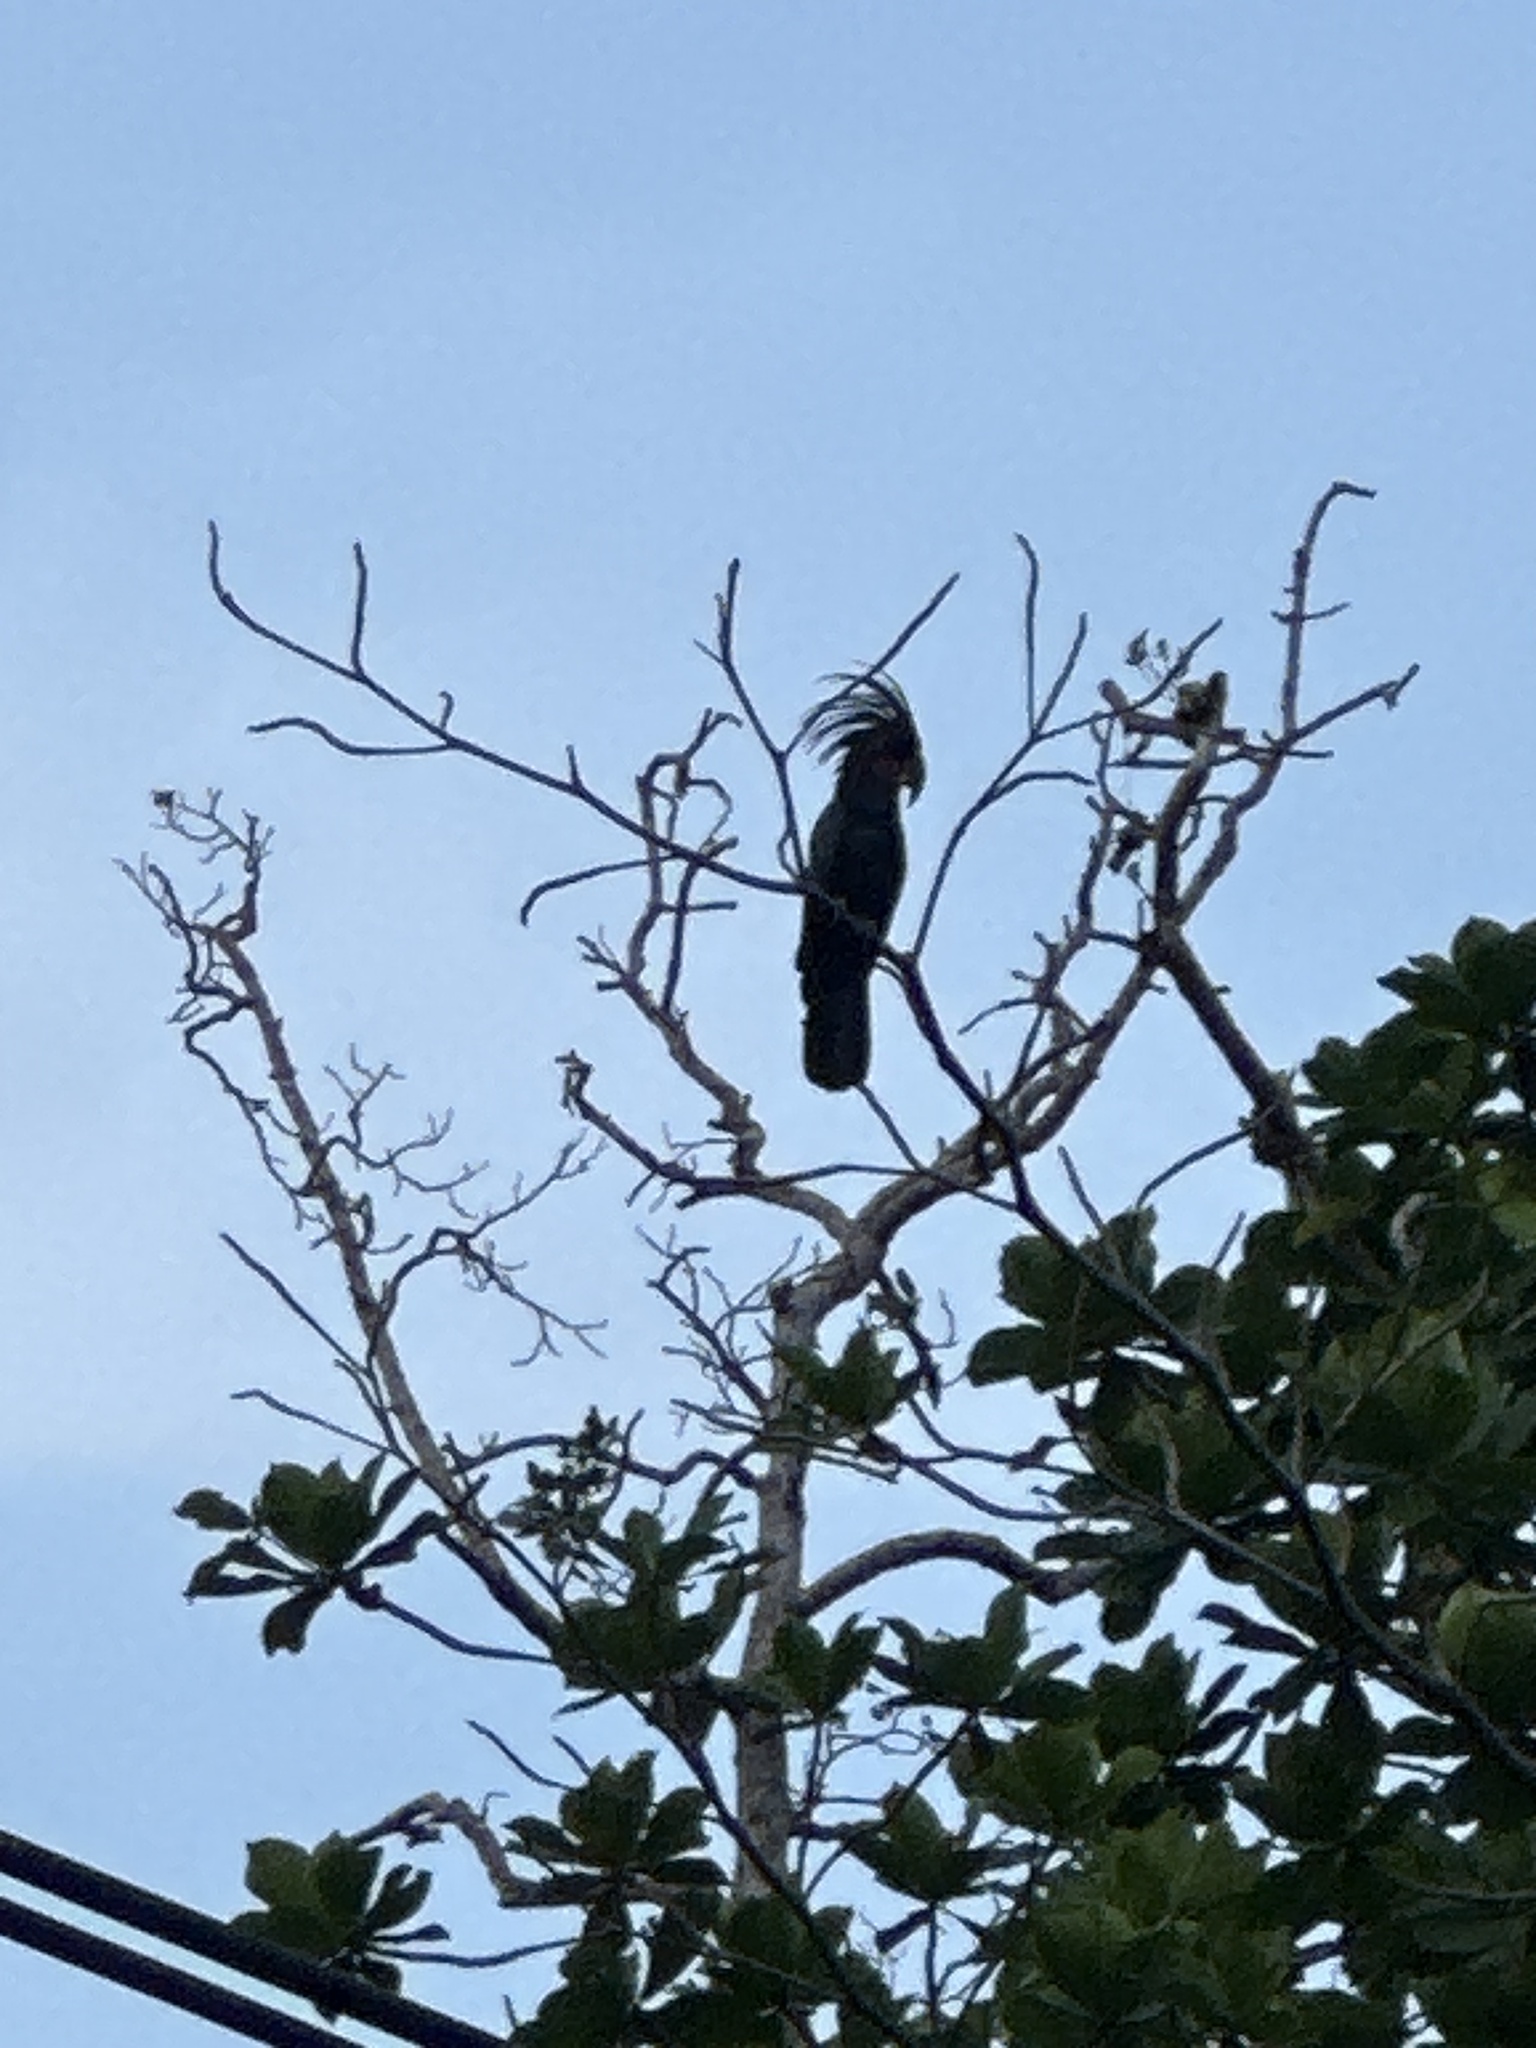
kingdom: Animalia
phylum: Chordata
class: Aves
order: Psittaciformes
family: Psittacidae
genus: Probosciger
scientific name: Probosciger aterrimus
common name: Palm cockatoo
